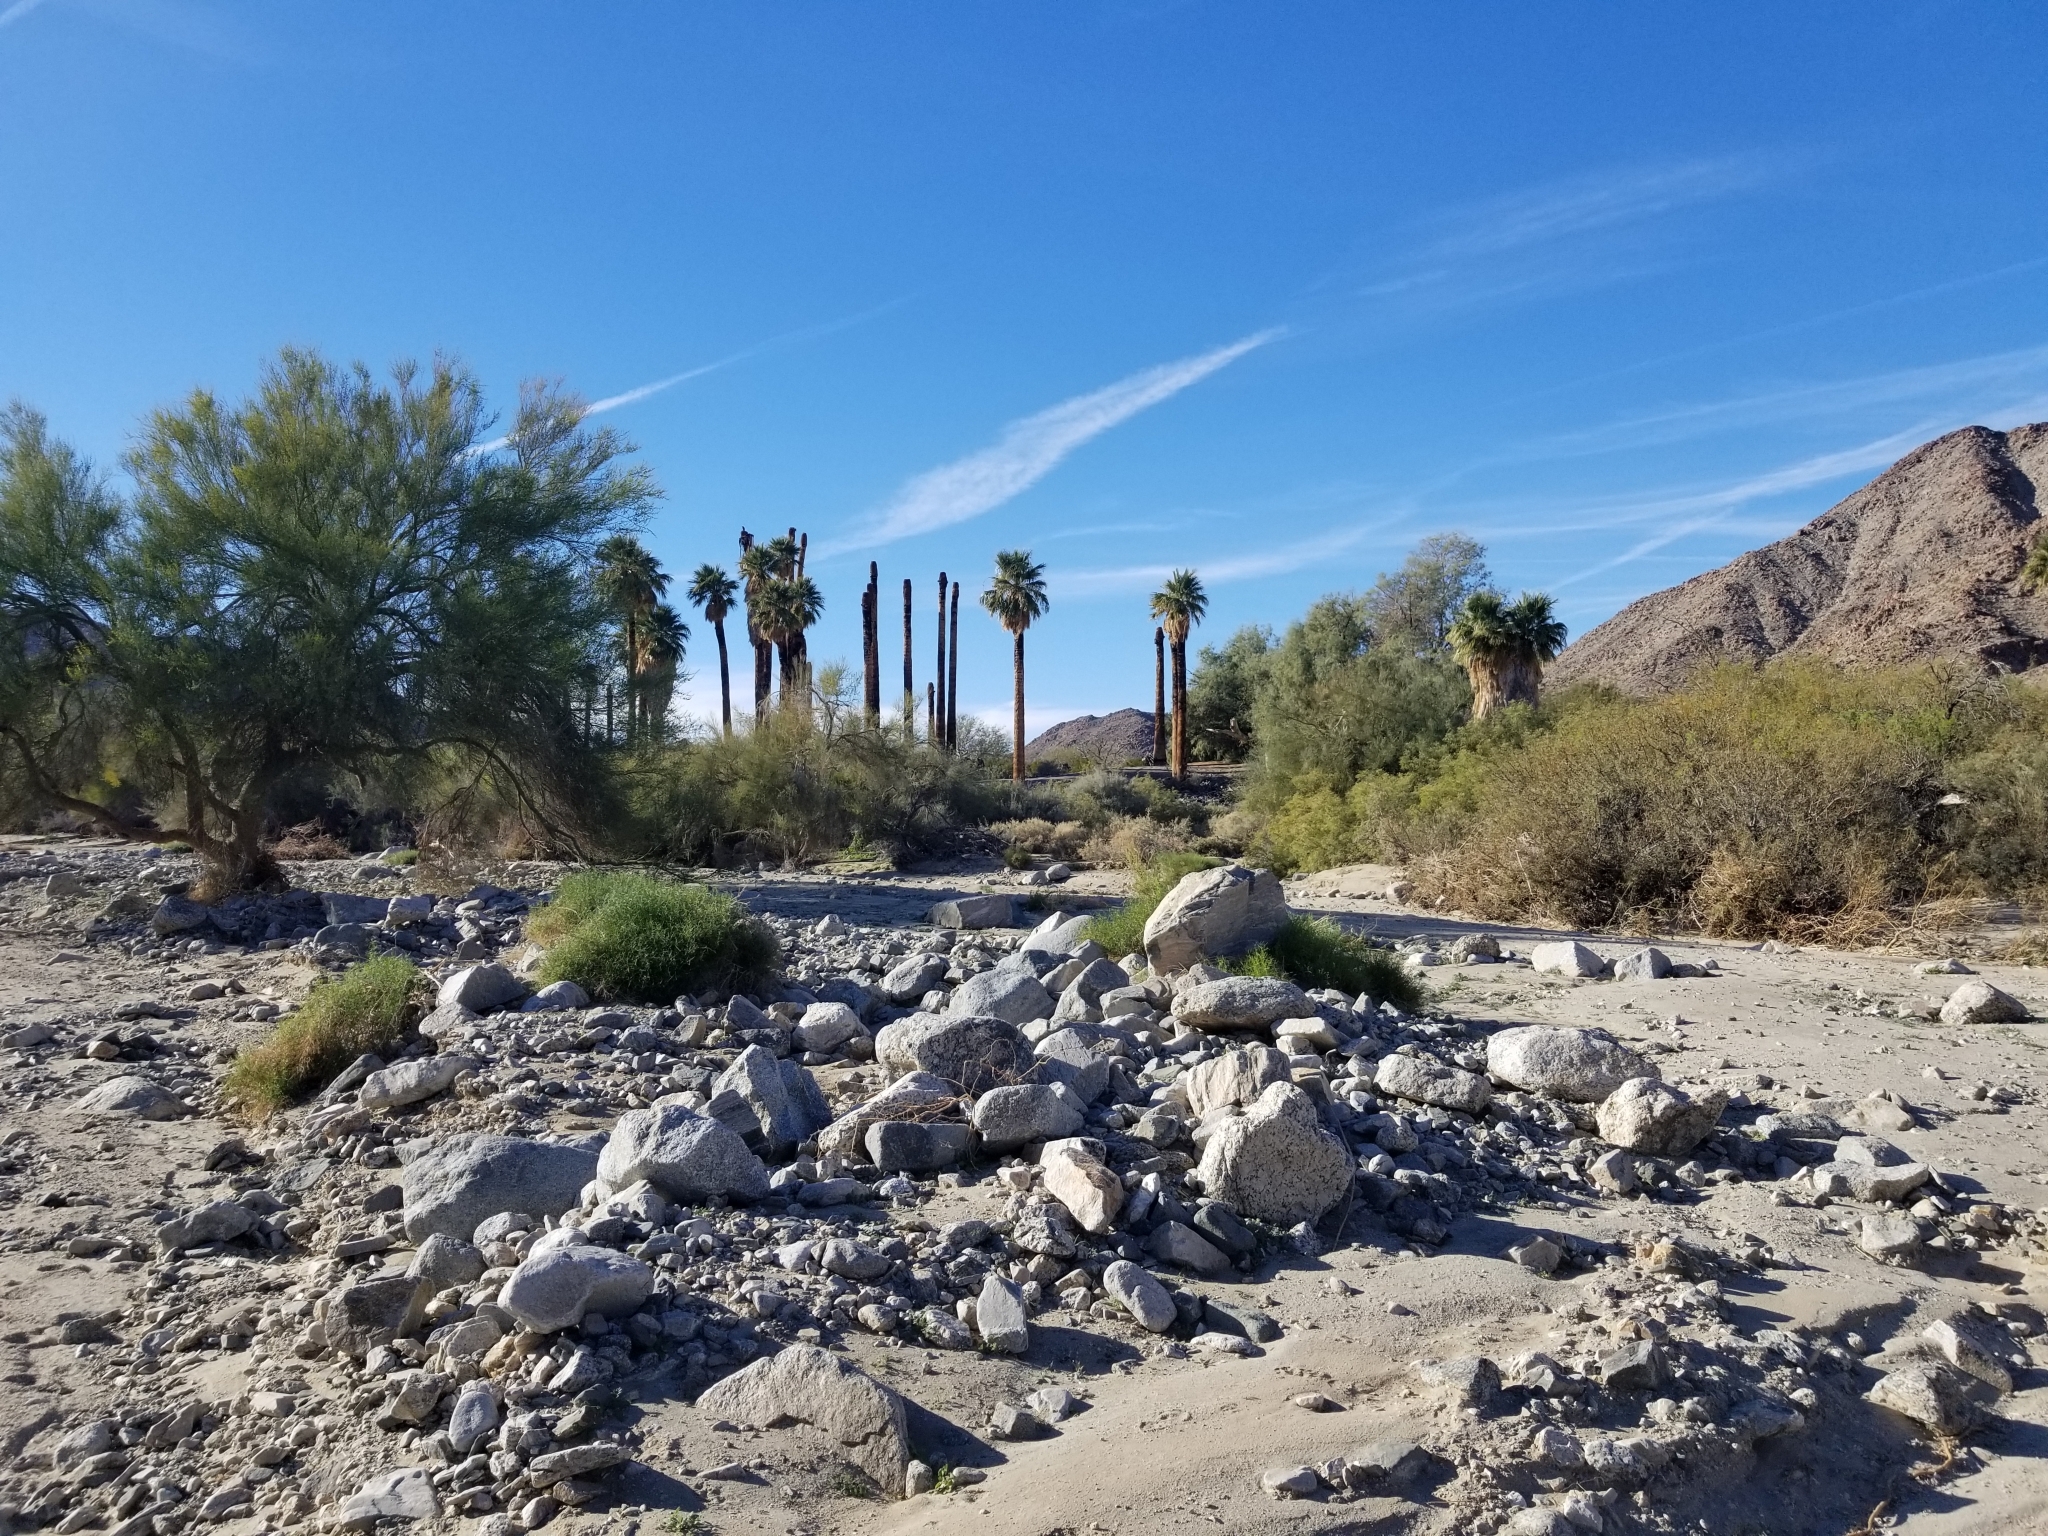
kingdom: Plantae
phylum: Tracheophyta
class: Liliopsida
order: Arecales
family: Arecaceae
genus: Washingtonia
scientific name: Washingtonia filifera
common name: California fan palm
